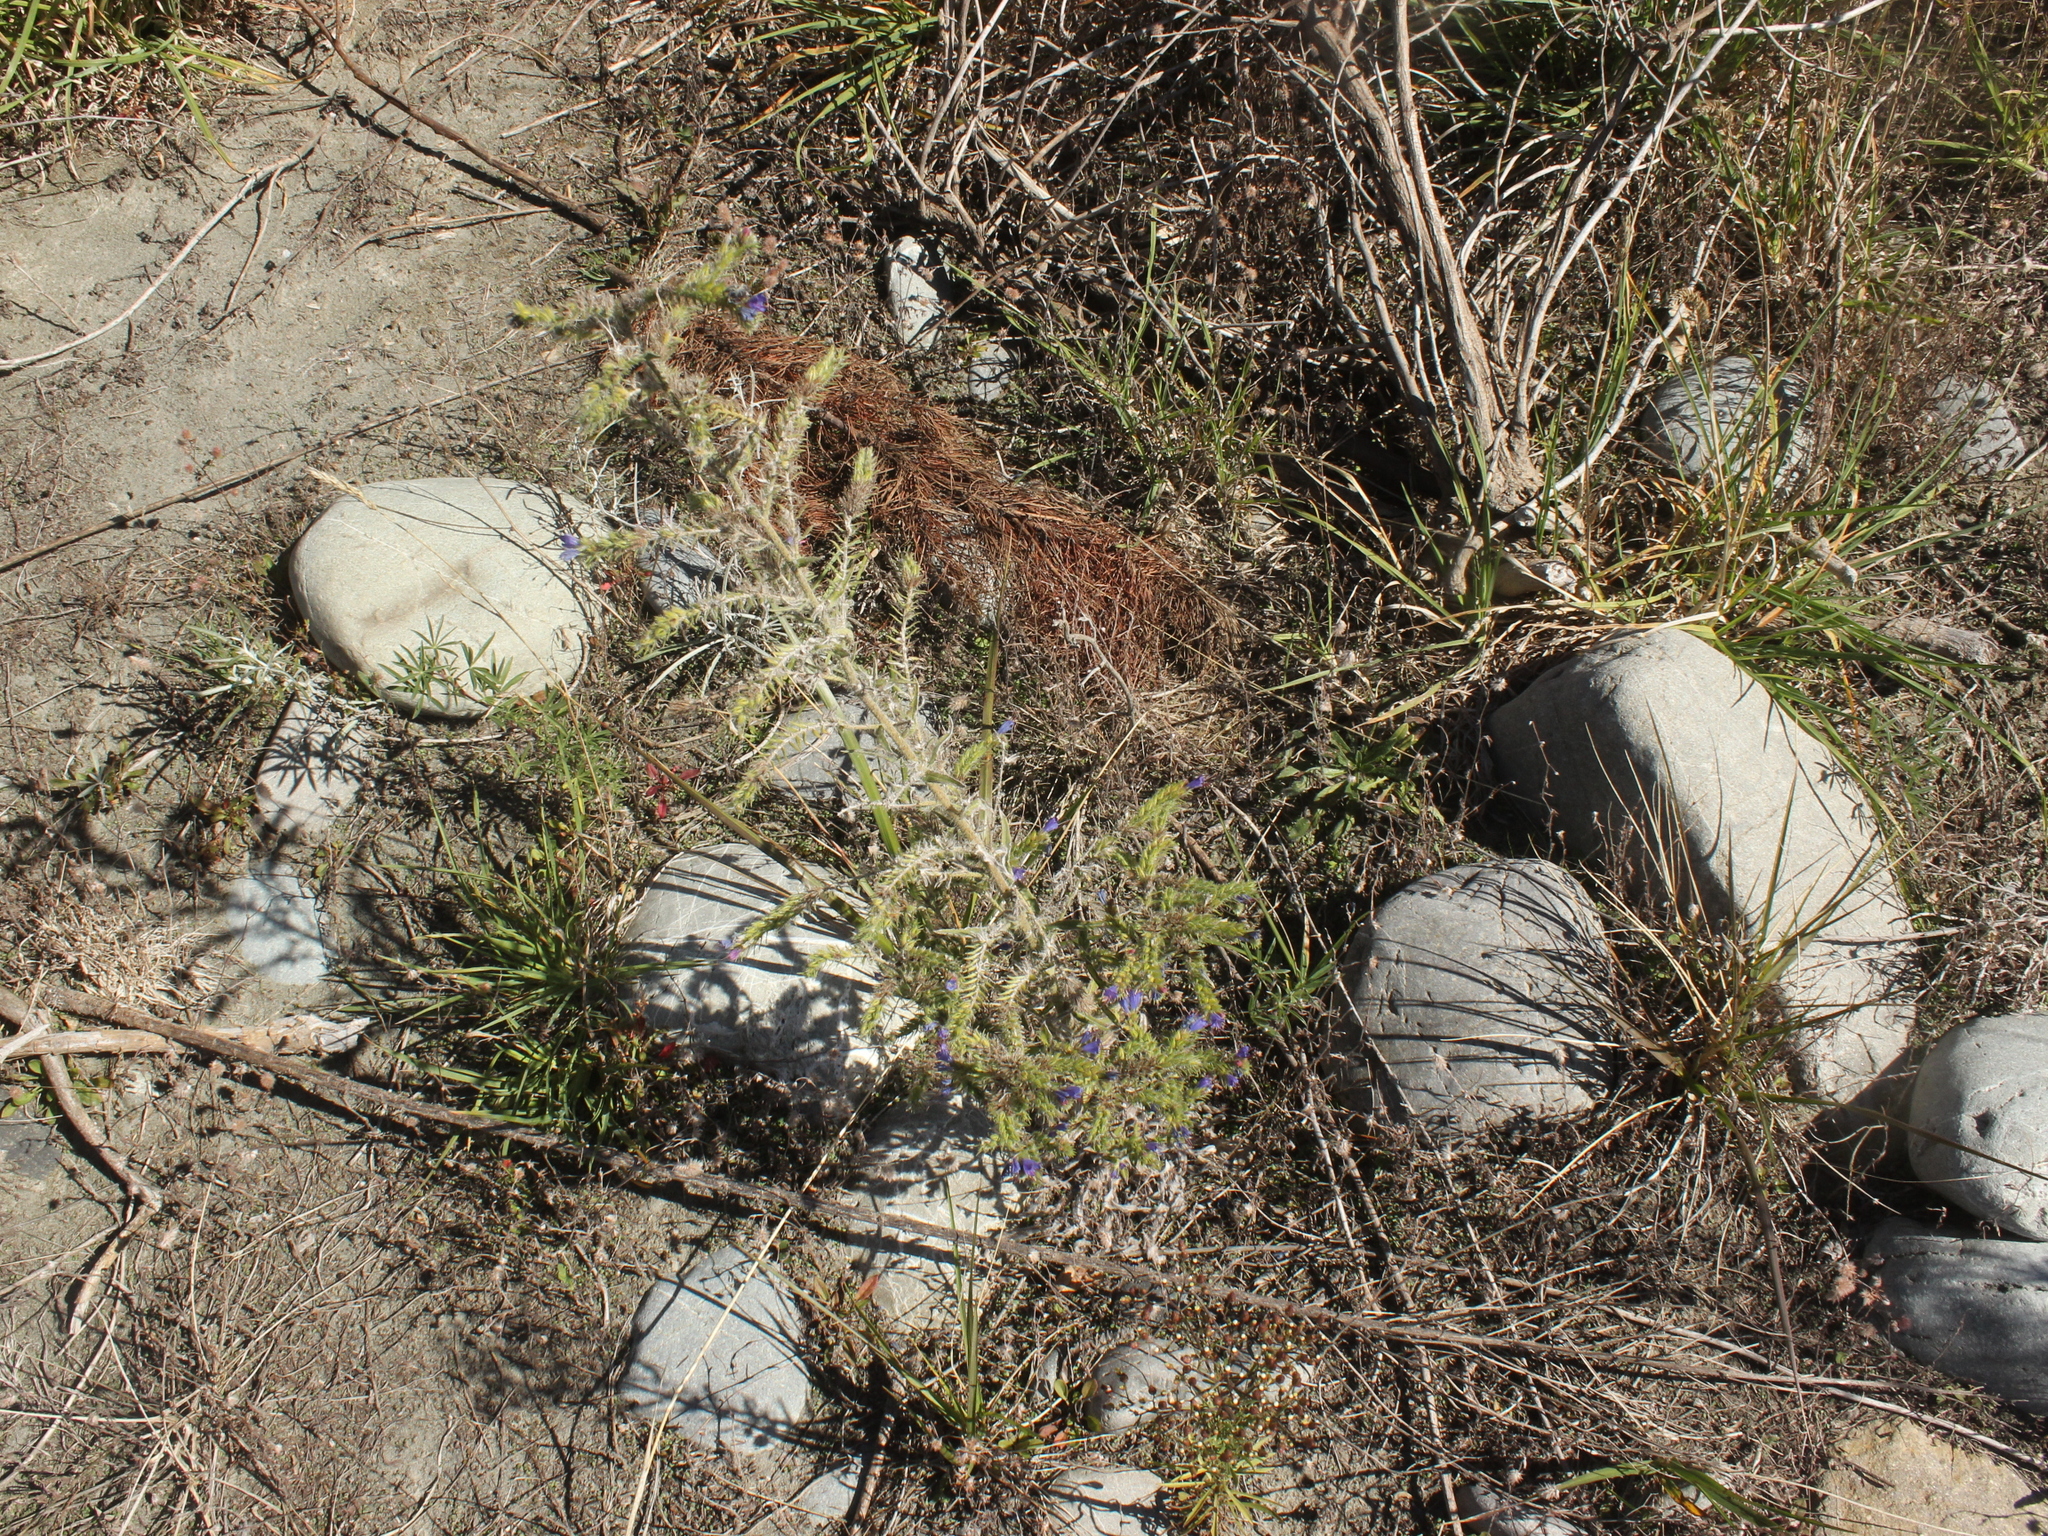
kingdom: Plantae
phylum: Tracheophyta
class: Magnoliopsida
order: Boraginales
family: Boraginaceae
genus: Echium
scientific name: Echium vulgare
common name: Common viper's bugloss
